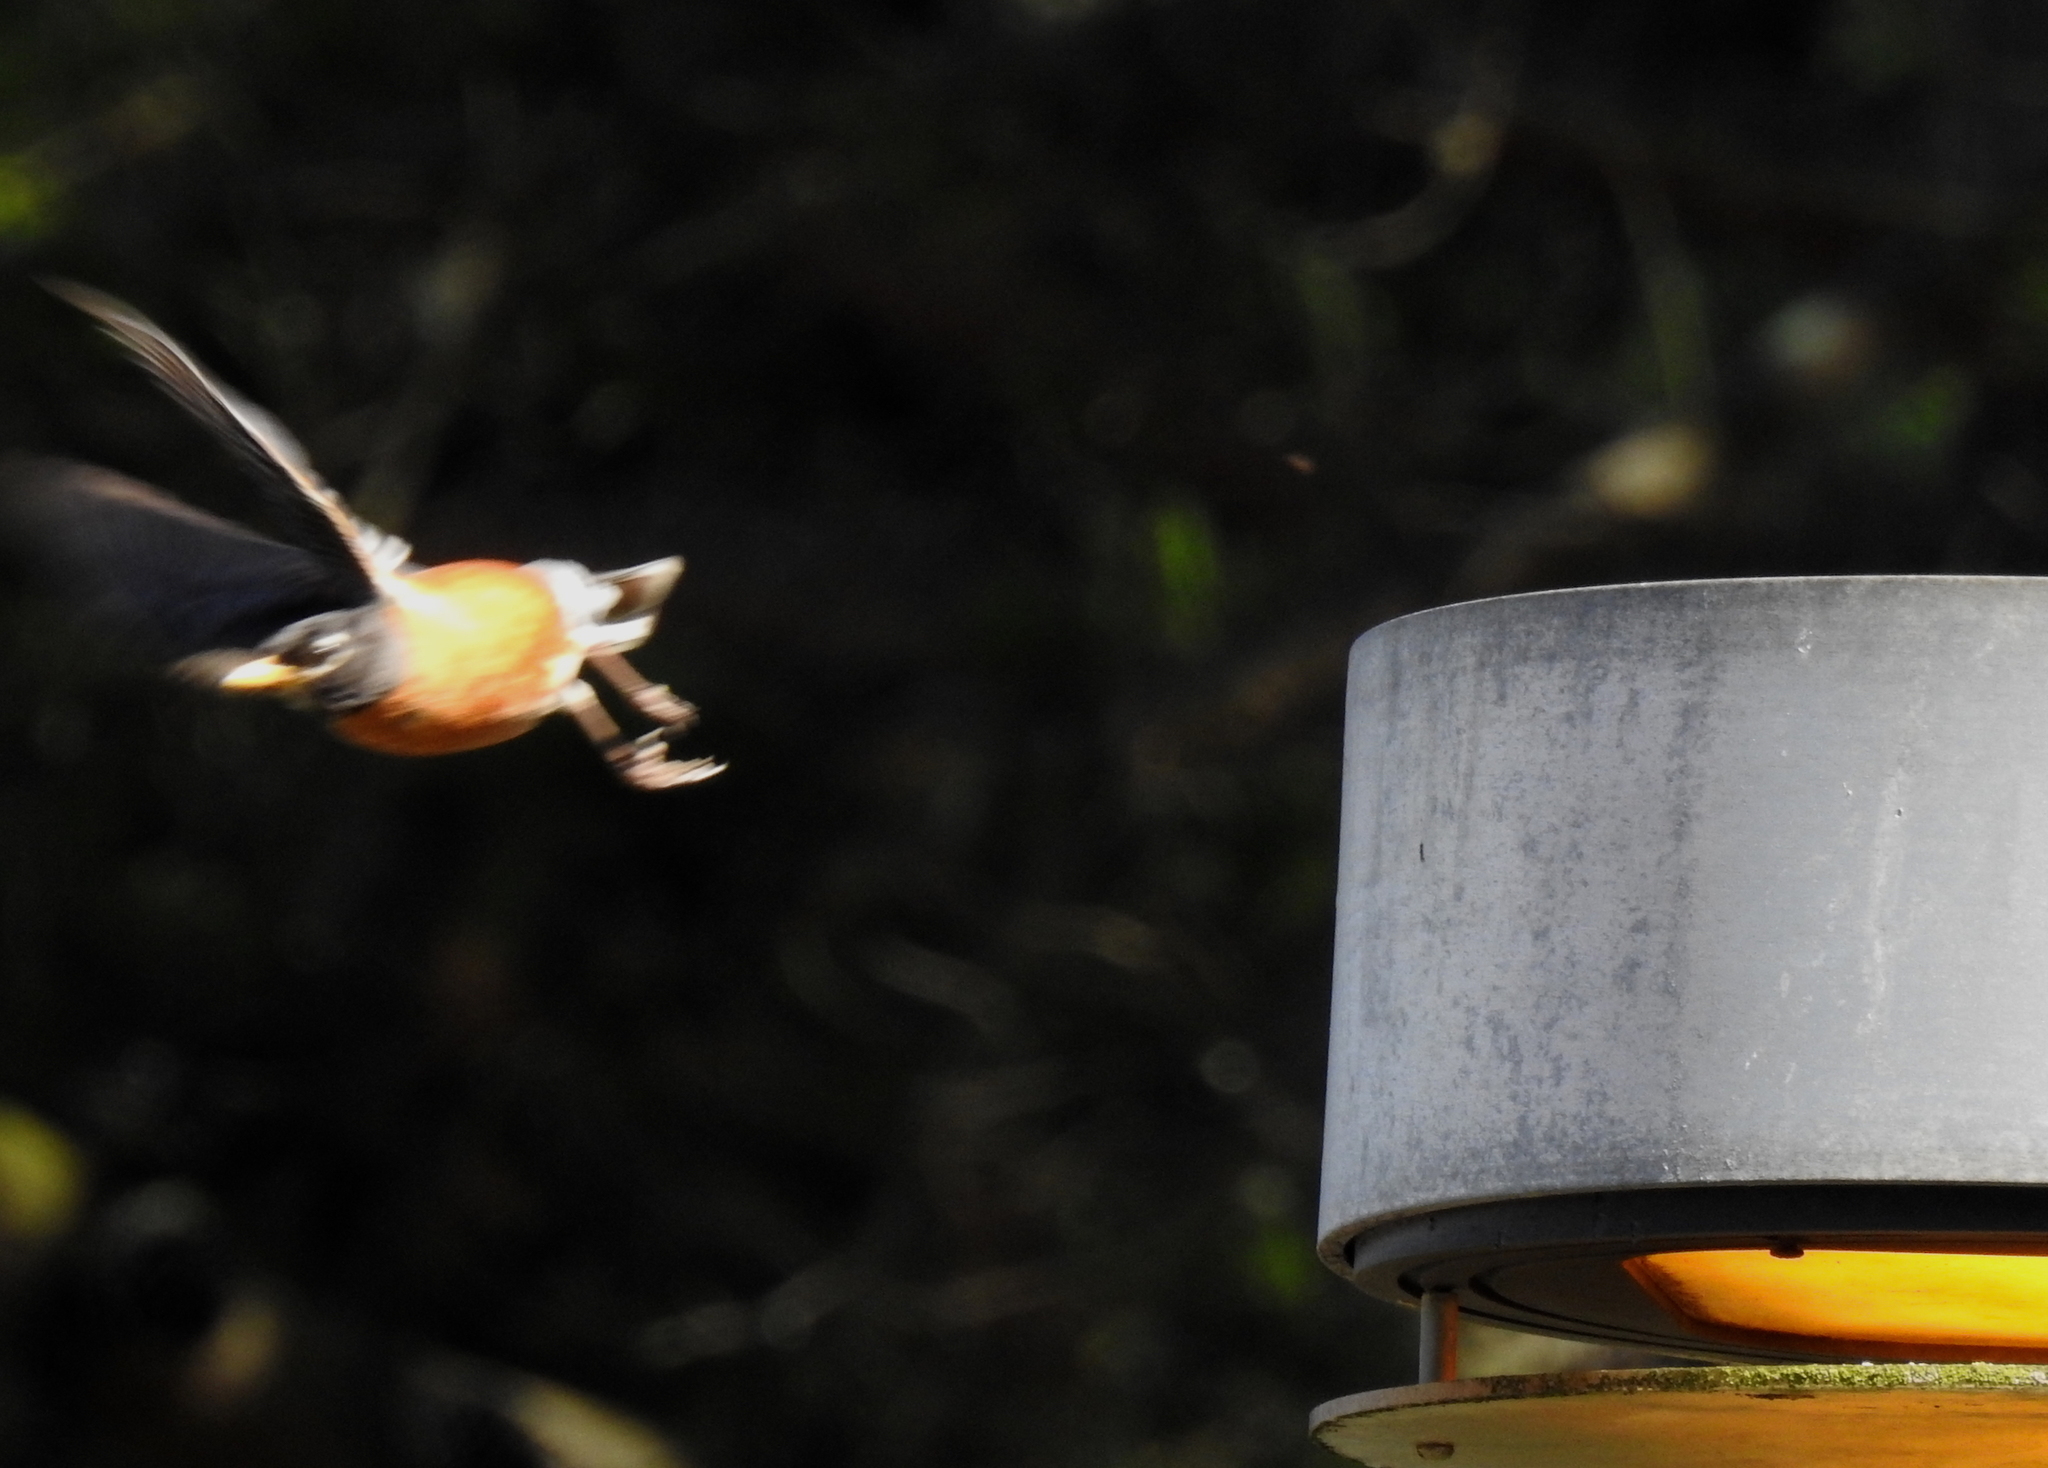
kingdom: Animalia
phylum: Chordata
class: Aves
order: Passeriformes
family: Turdidae
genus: Turdus
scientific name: Turdus migratorius
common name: American robin
